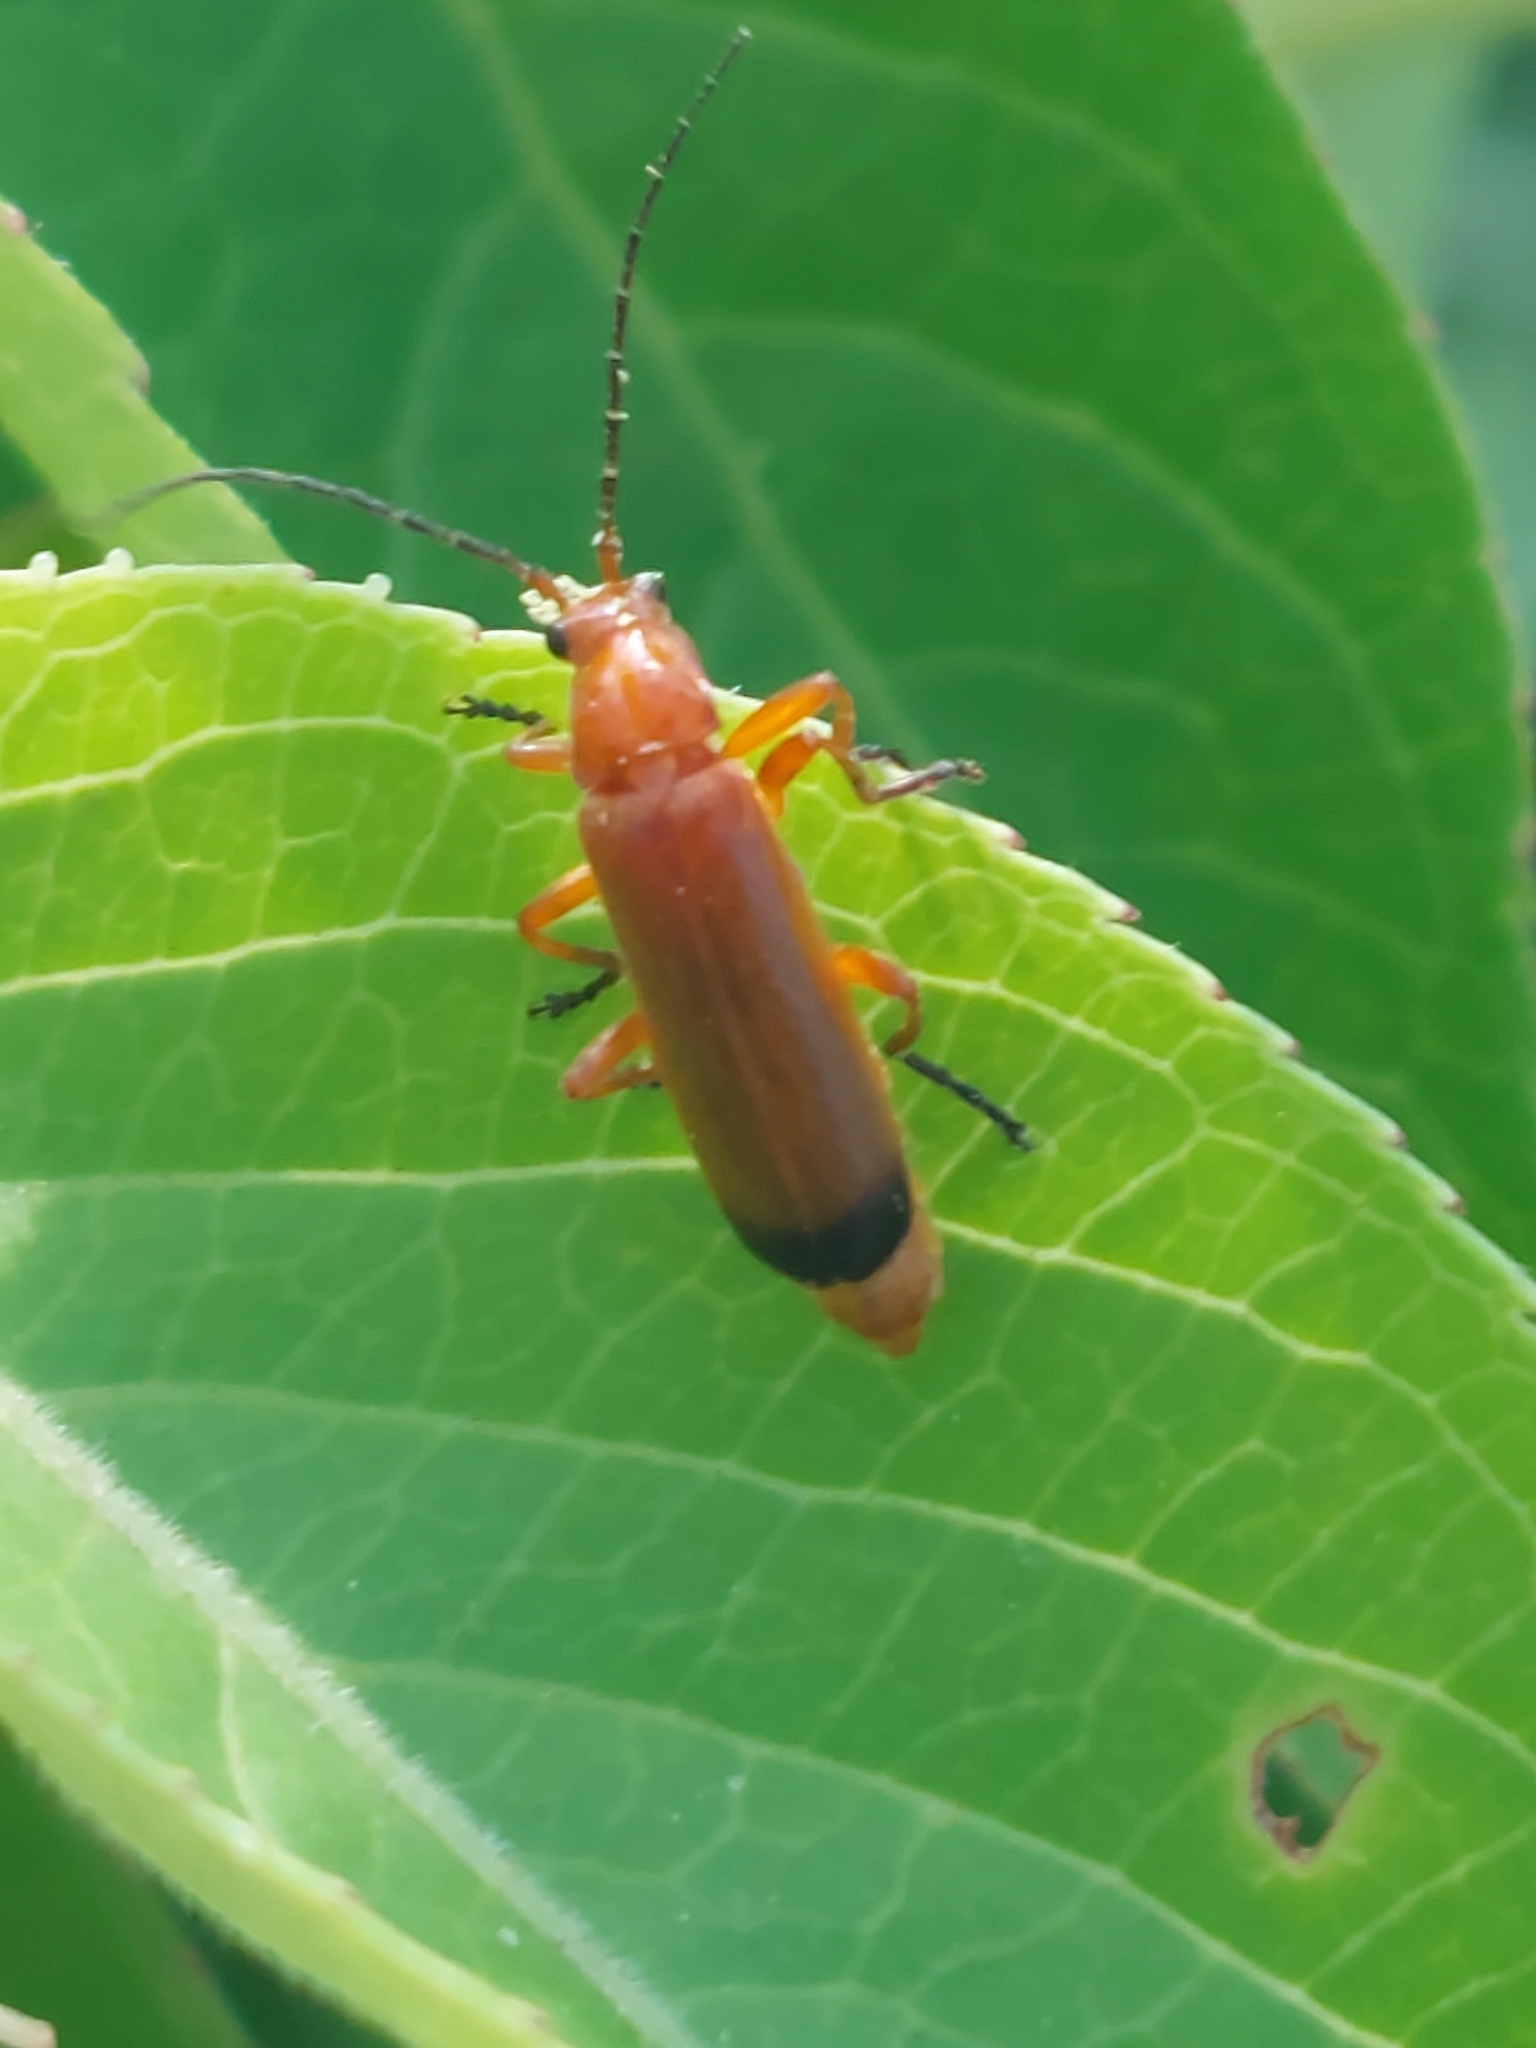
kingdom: Animalia
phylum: Arthropoda
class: Insecta
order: Coleoptera
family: Cantharidae
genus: Rhagonycha
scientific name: Rhagonycha fulva
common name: Common red soldier beetle
